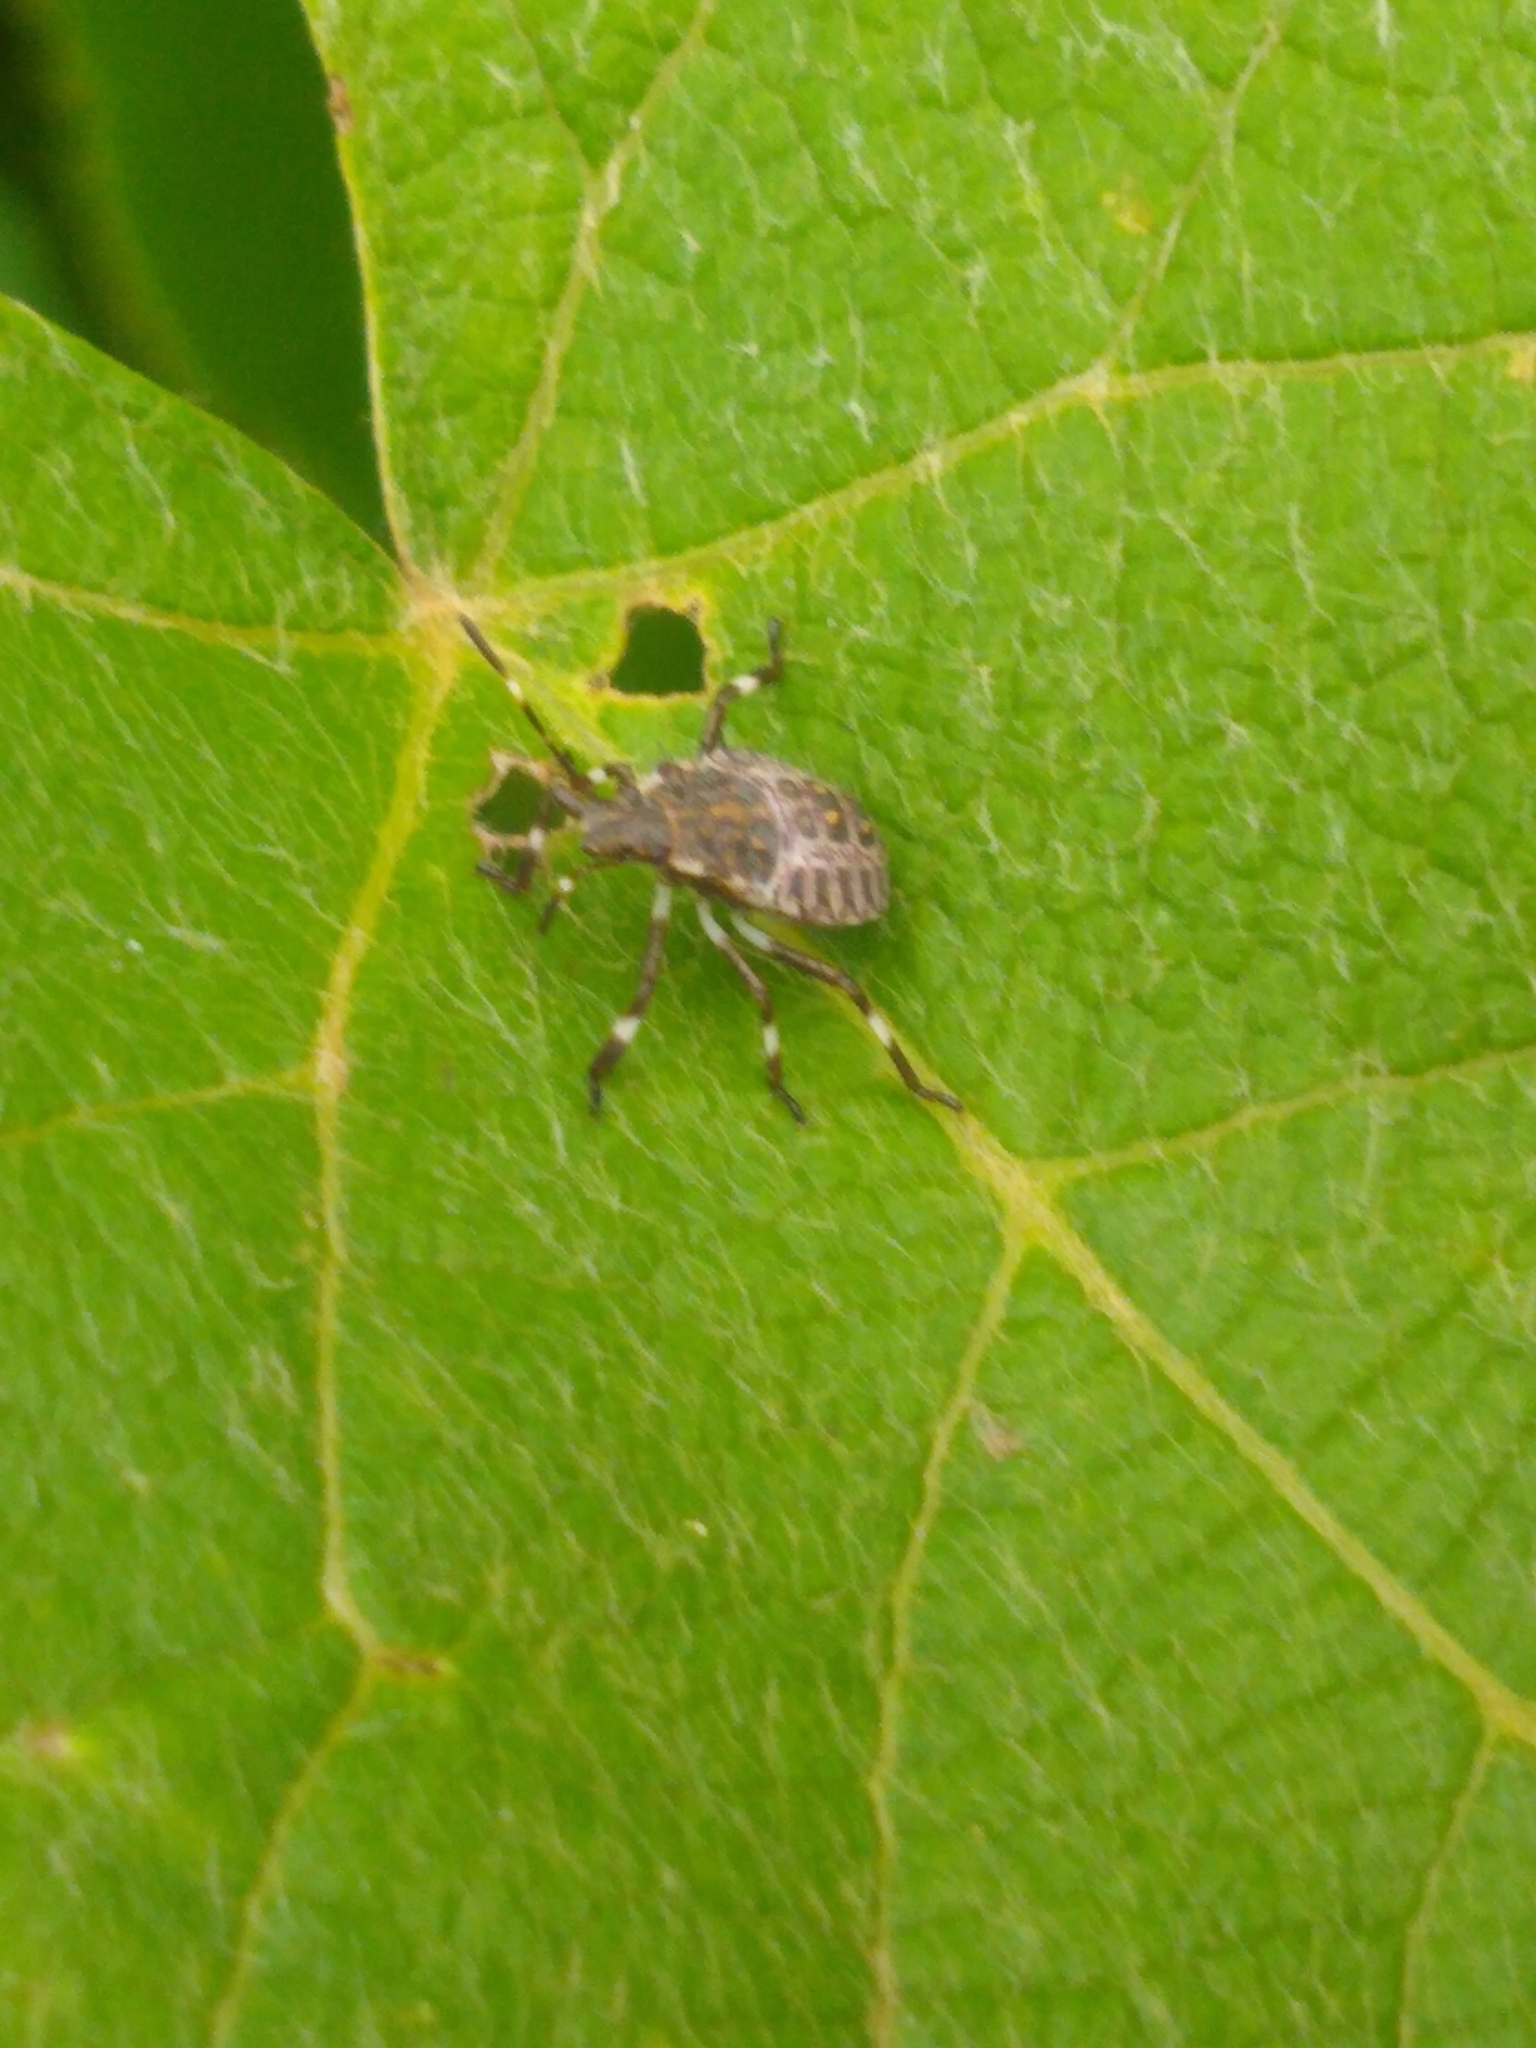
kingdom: Animalia
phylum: Arthropoda
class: Insecta
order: Hemiptera
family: Pentatomidae
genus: Halyomorpha
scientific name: Halyomorpha halys
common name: Brown marmorated stink bug
